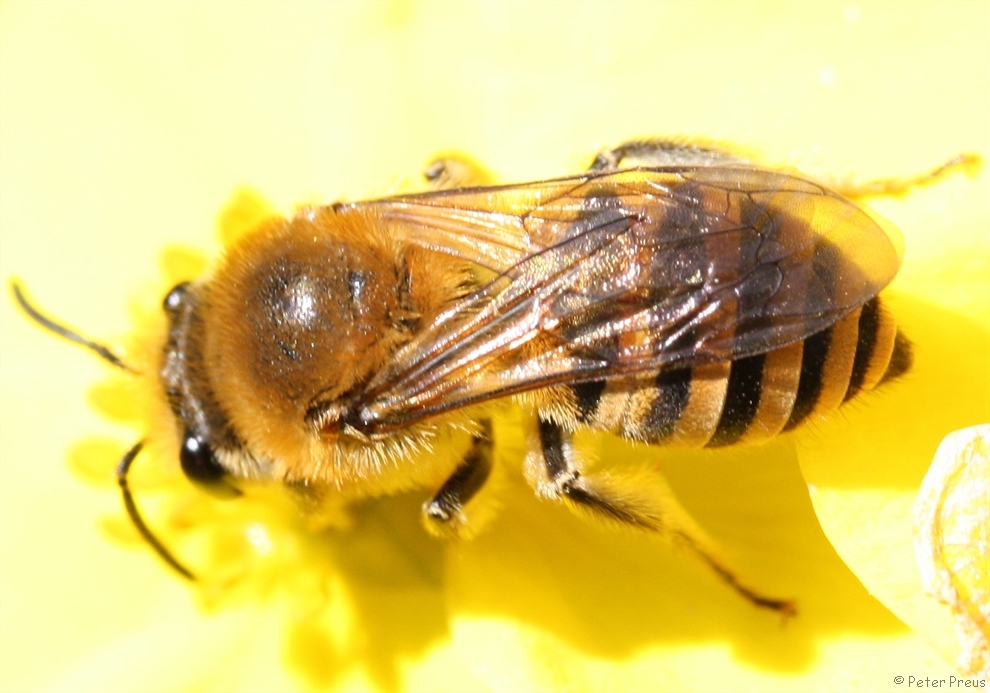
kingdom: Animalia
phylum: Arthropoda
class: Insecta
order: Hymenoptera
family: Colletidae
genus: Colletes
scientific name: Colletes hederae
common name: Ivy bee
